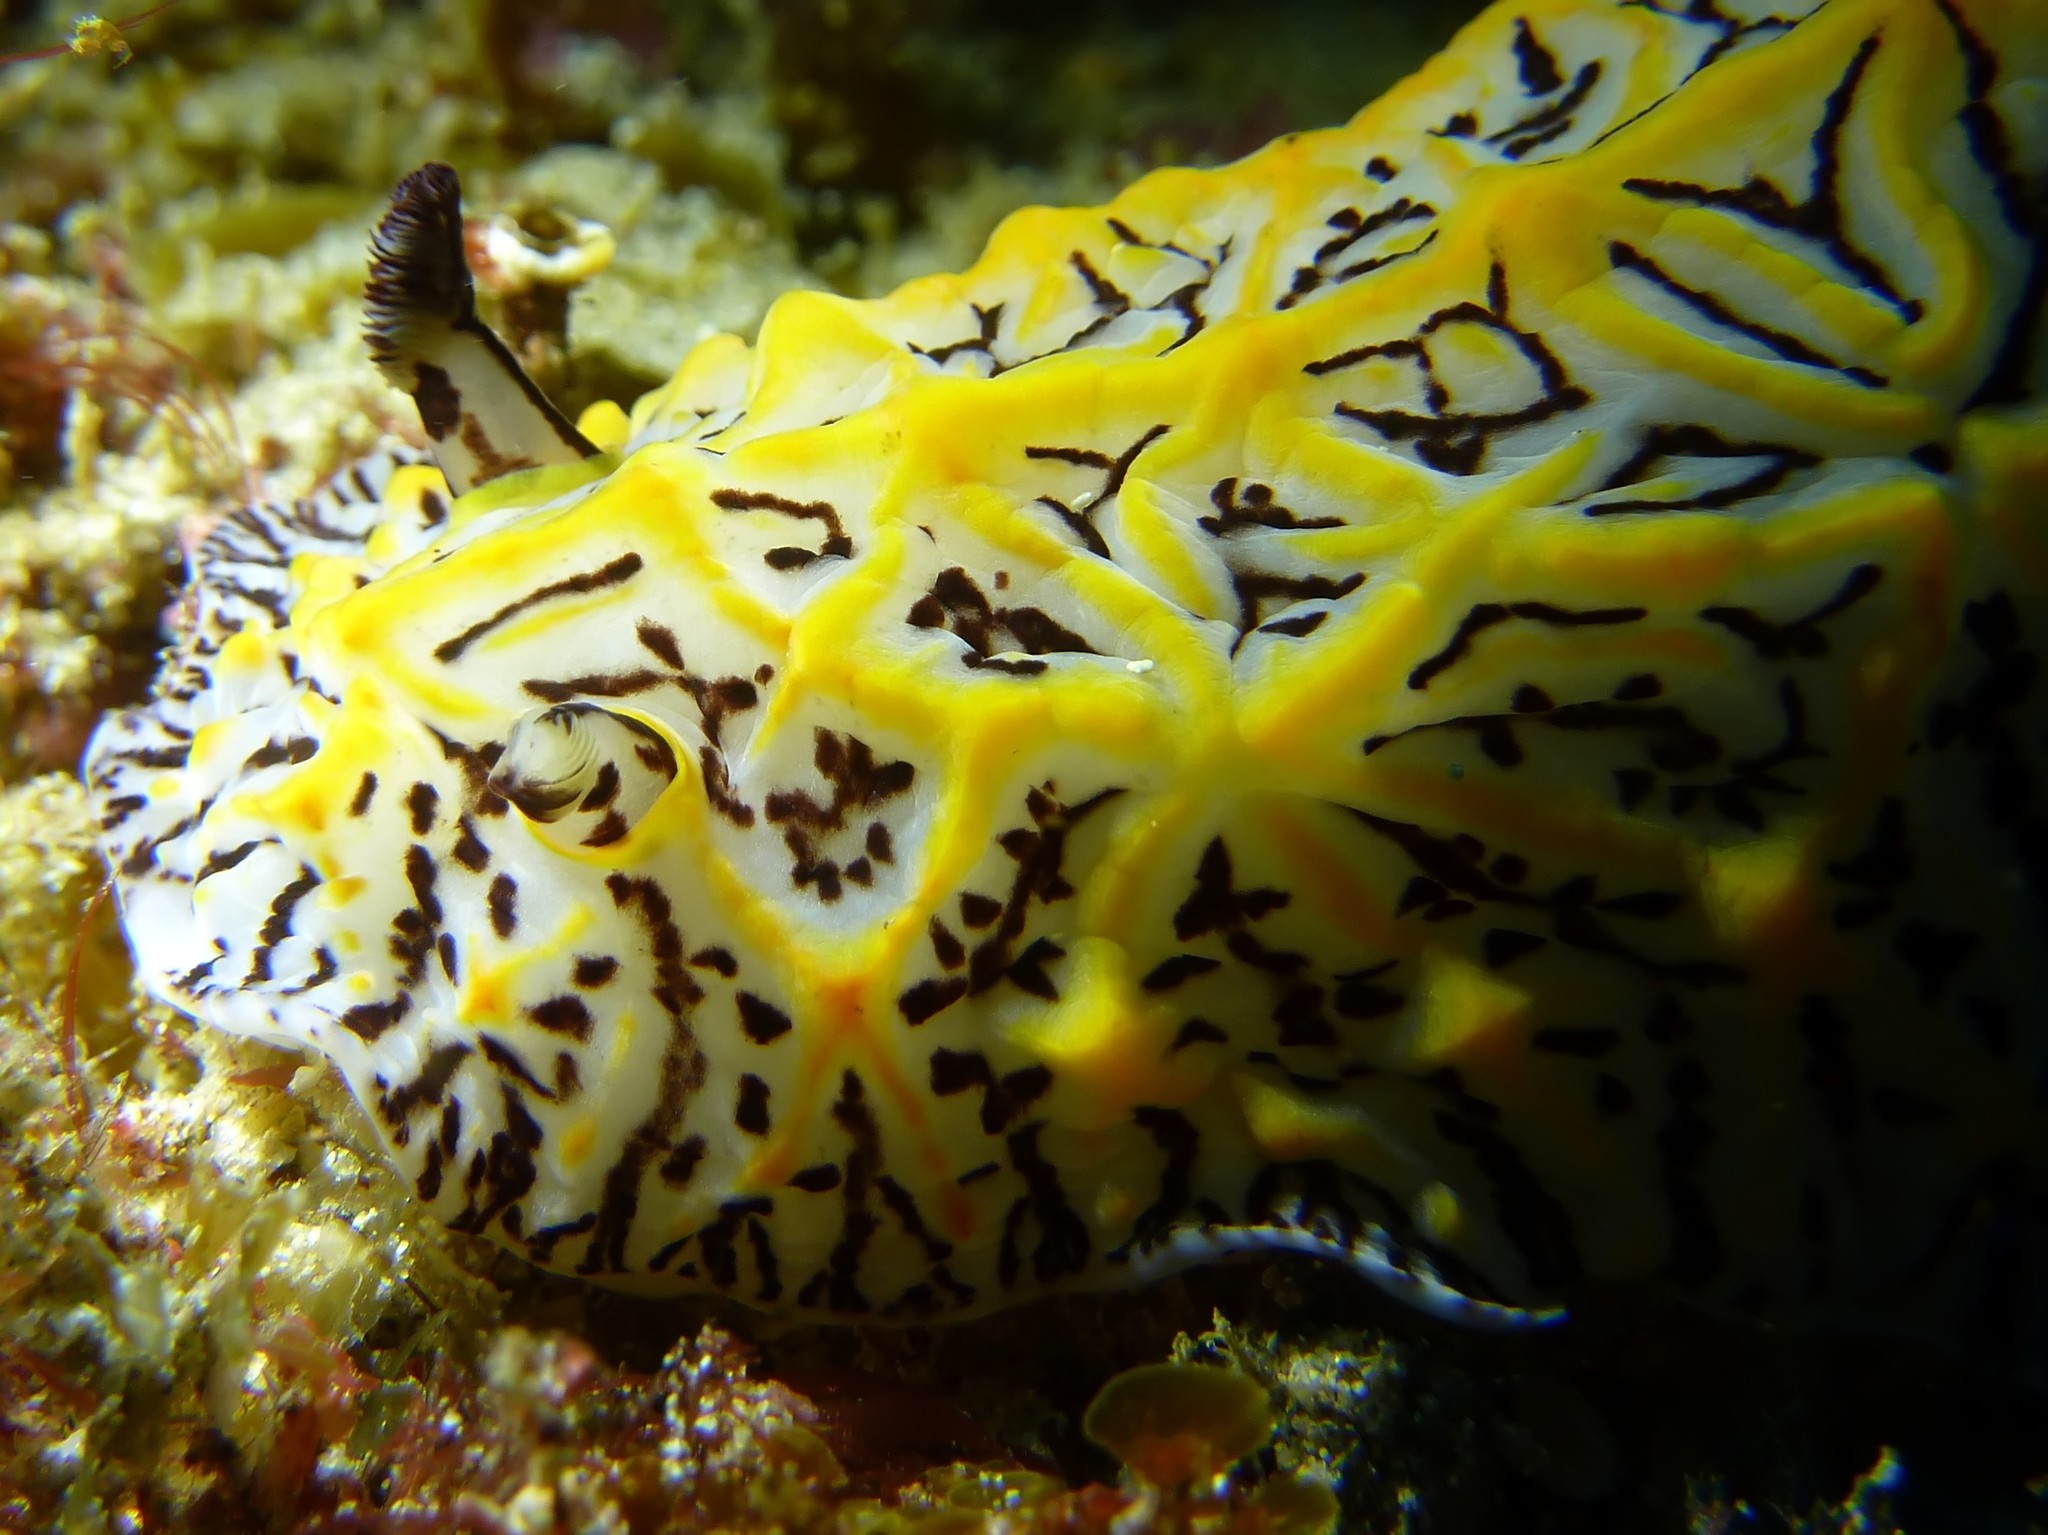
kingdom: Animalia
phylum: Mollusca
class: Gastropoda
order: Nudibranchia
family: Discodorididae
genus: Halgerda
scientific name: Halgerda willeyi
